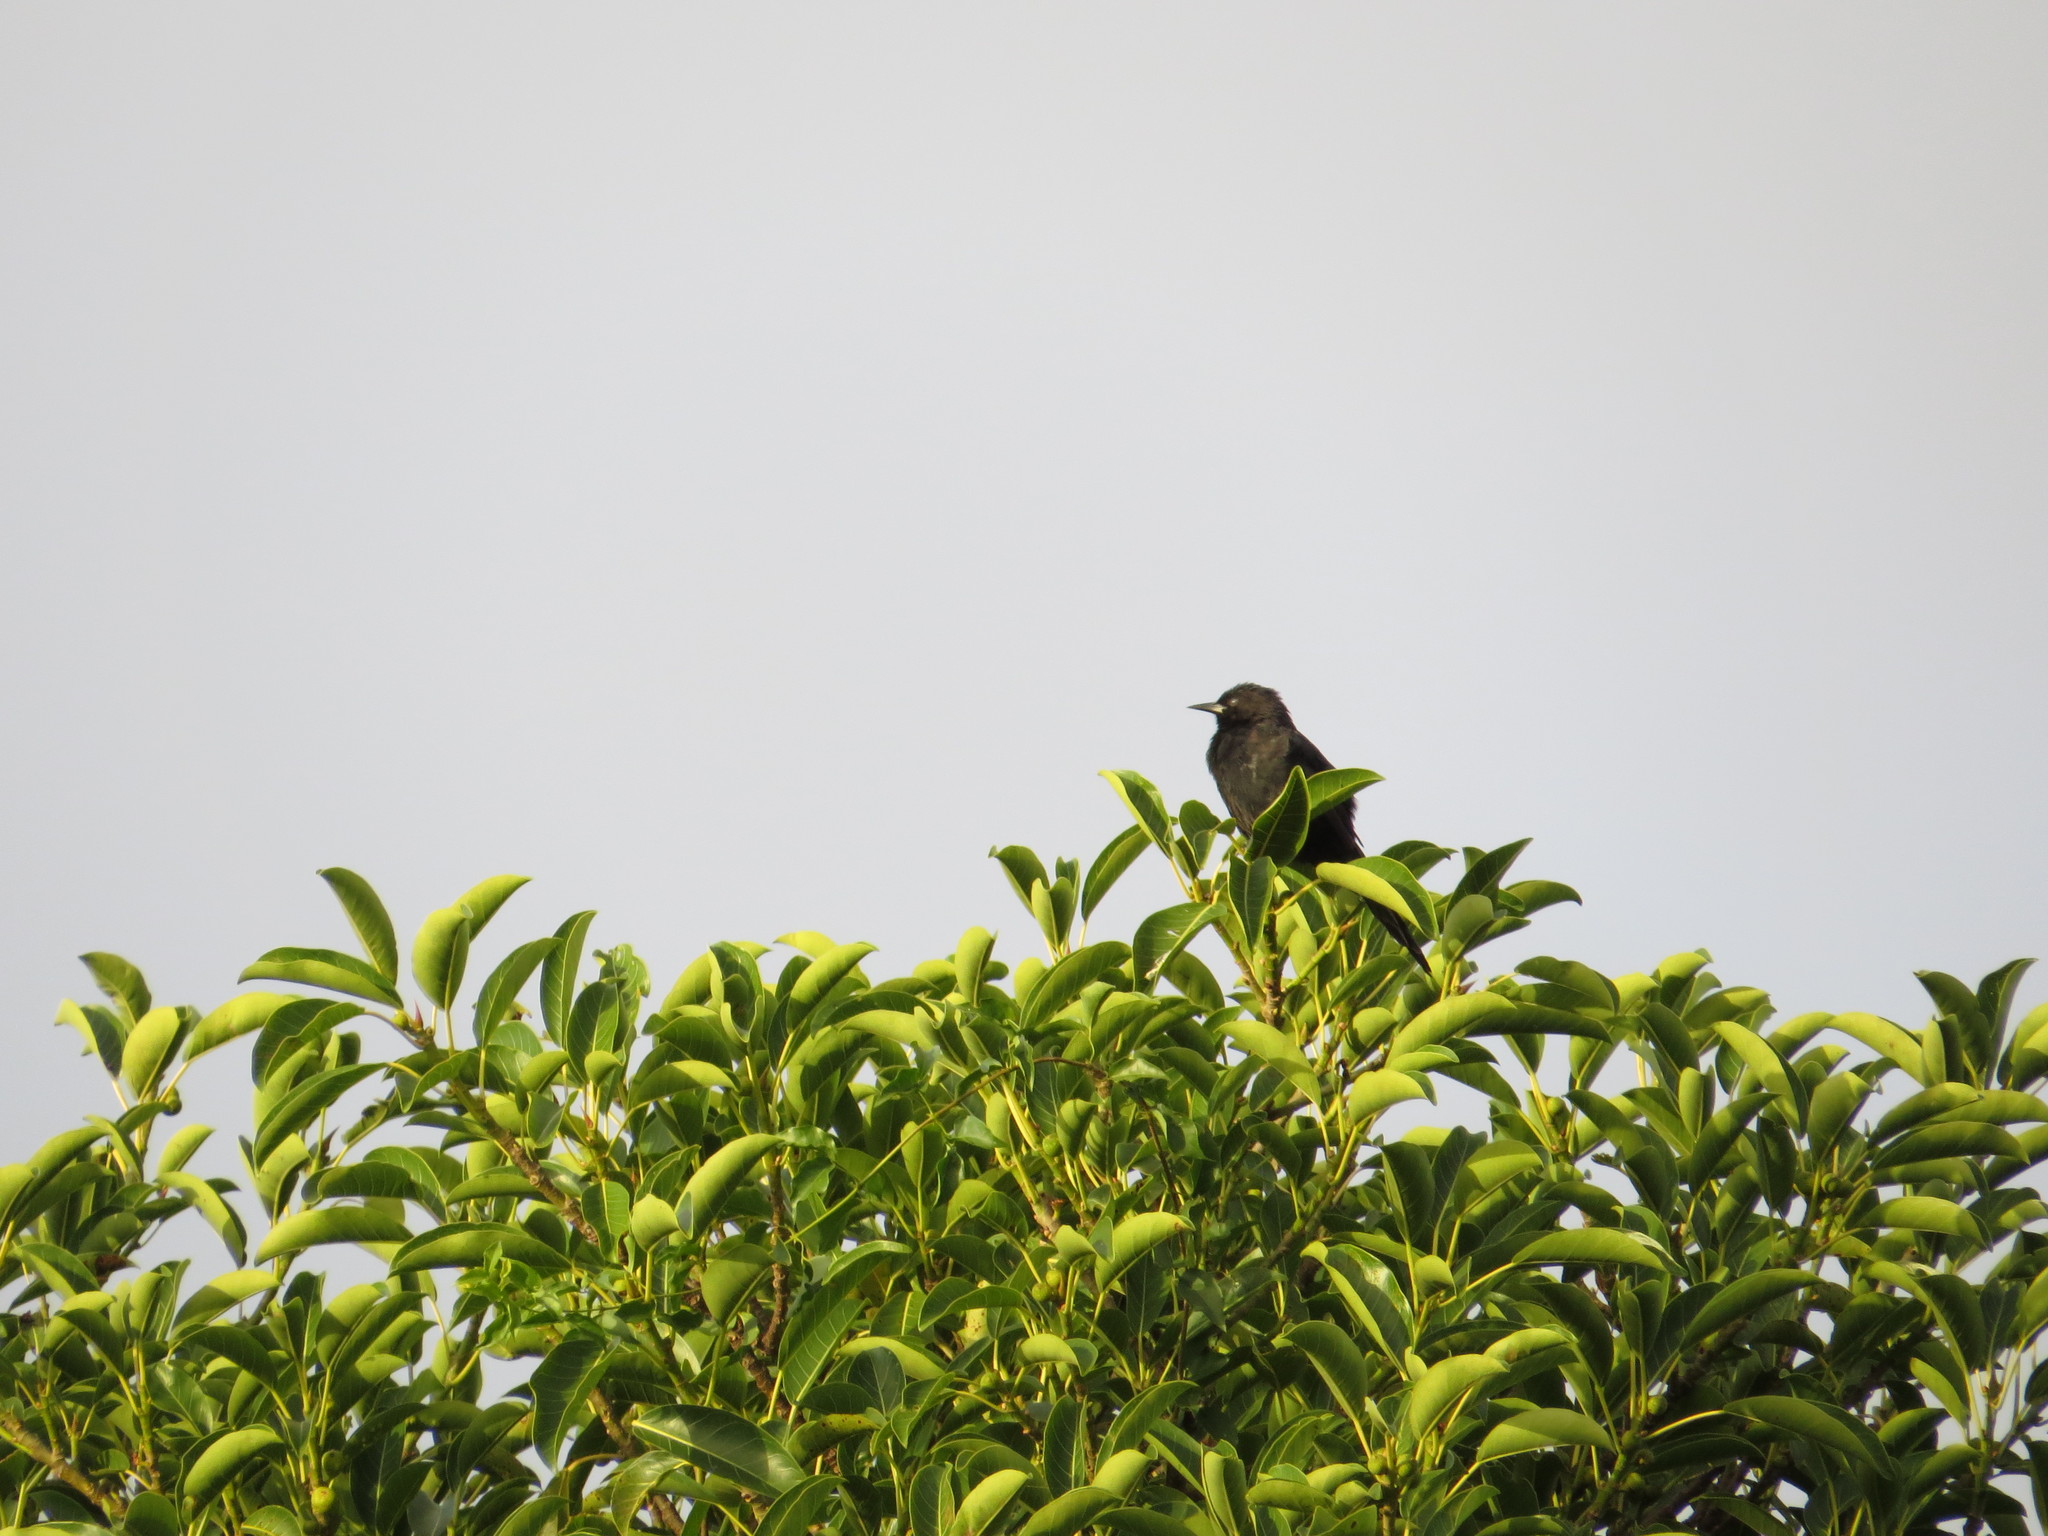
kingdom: Animalia
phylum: Chordata
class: Aves
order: Passeriformes
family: Icteridae
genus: Icterus
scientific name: Icterus cayanensis
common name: Epaulet oriole
